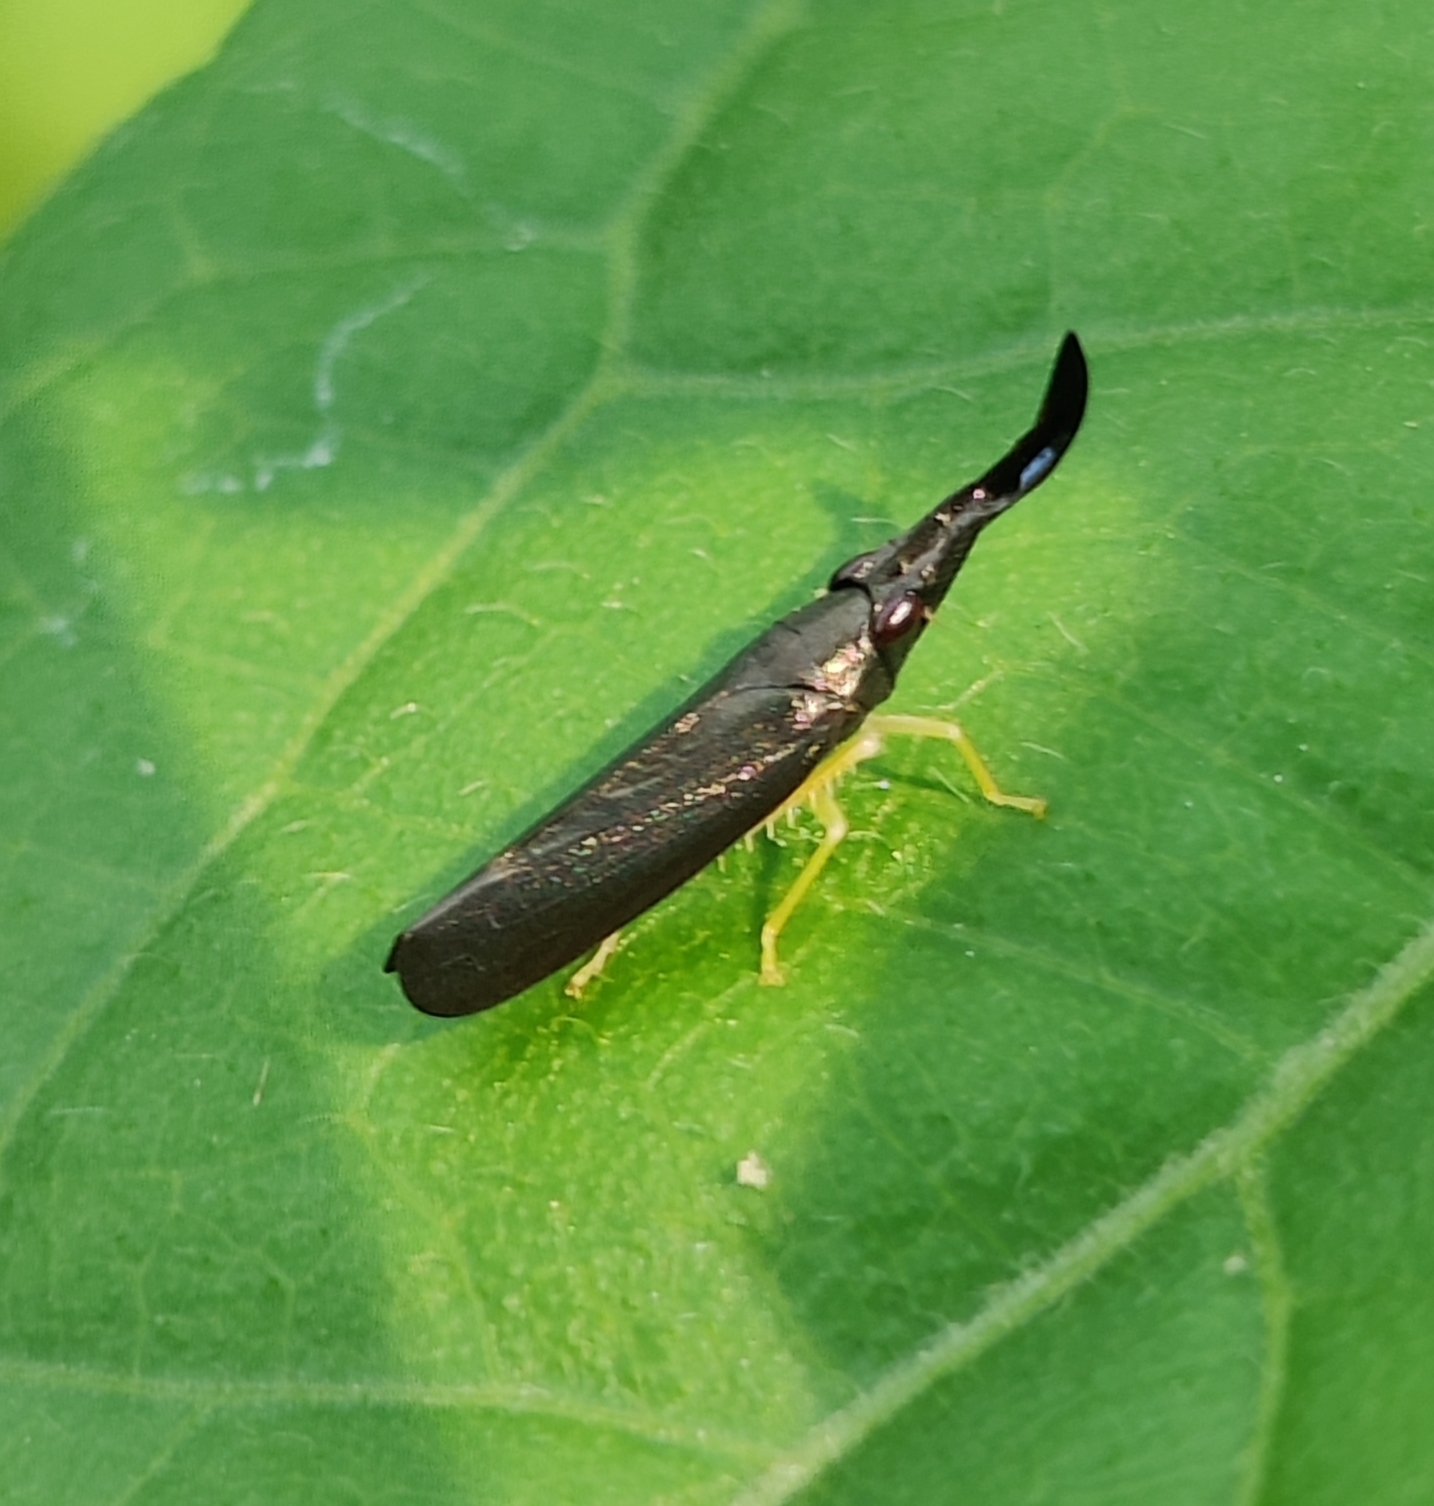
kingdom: Animalia
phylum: Arthropoda
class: Insecta
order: Hemiptera
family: Cicadellidae
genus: Vangama
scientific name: Vangama steneosaura
